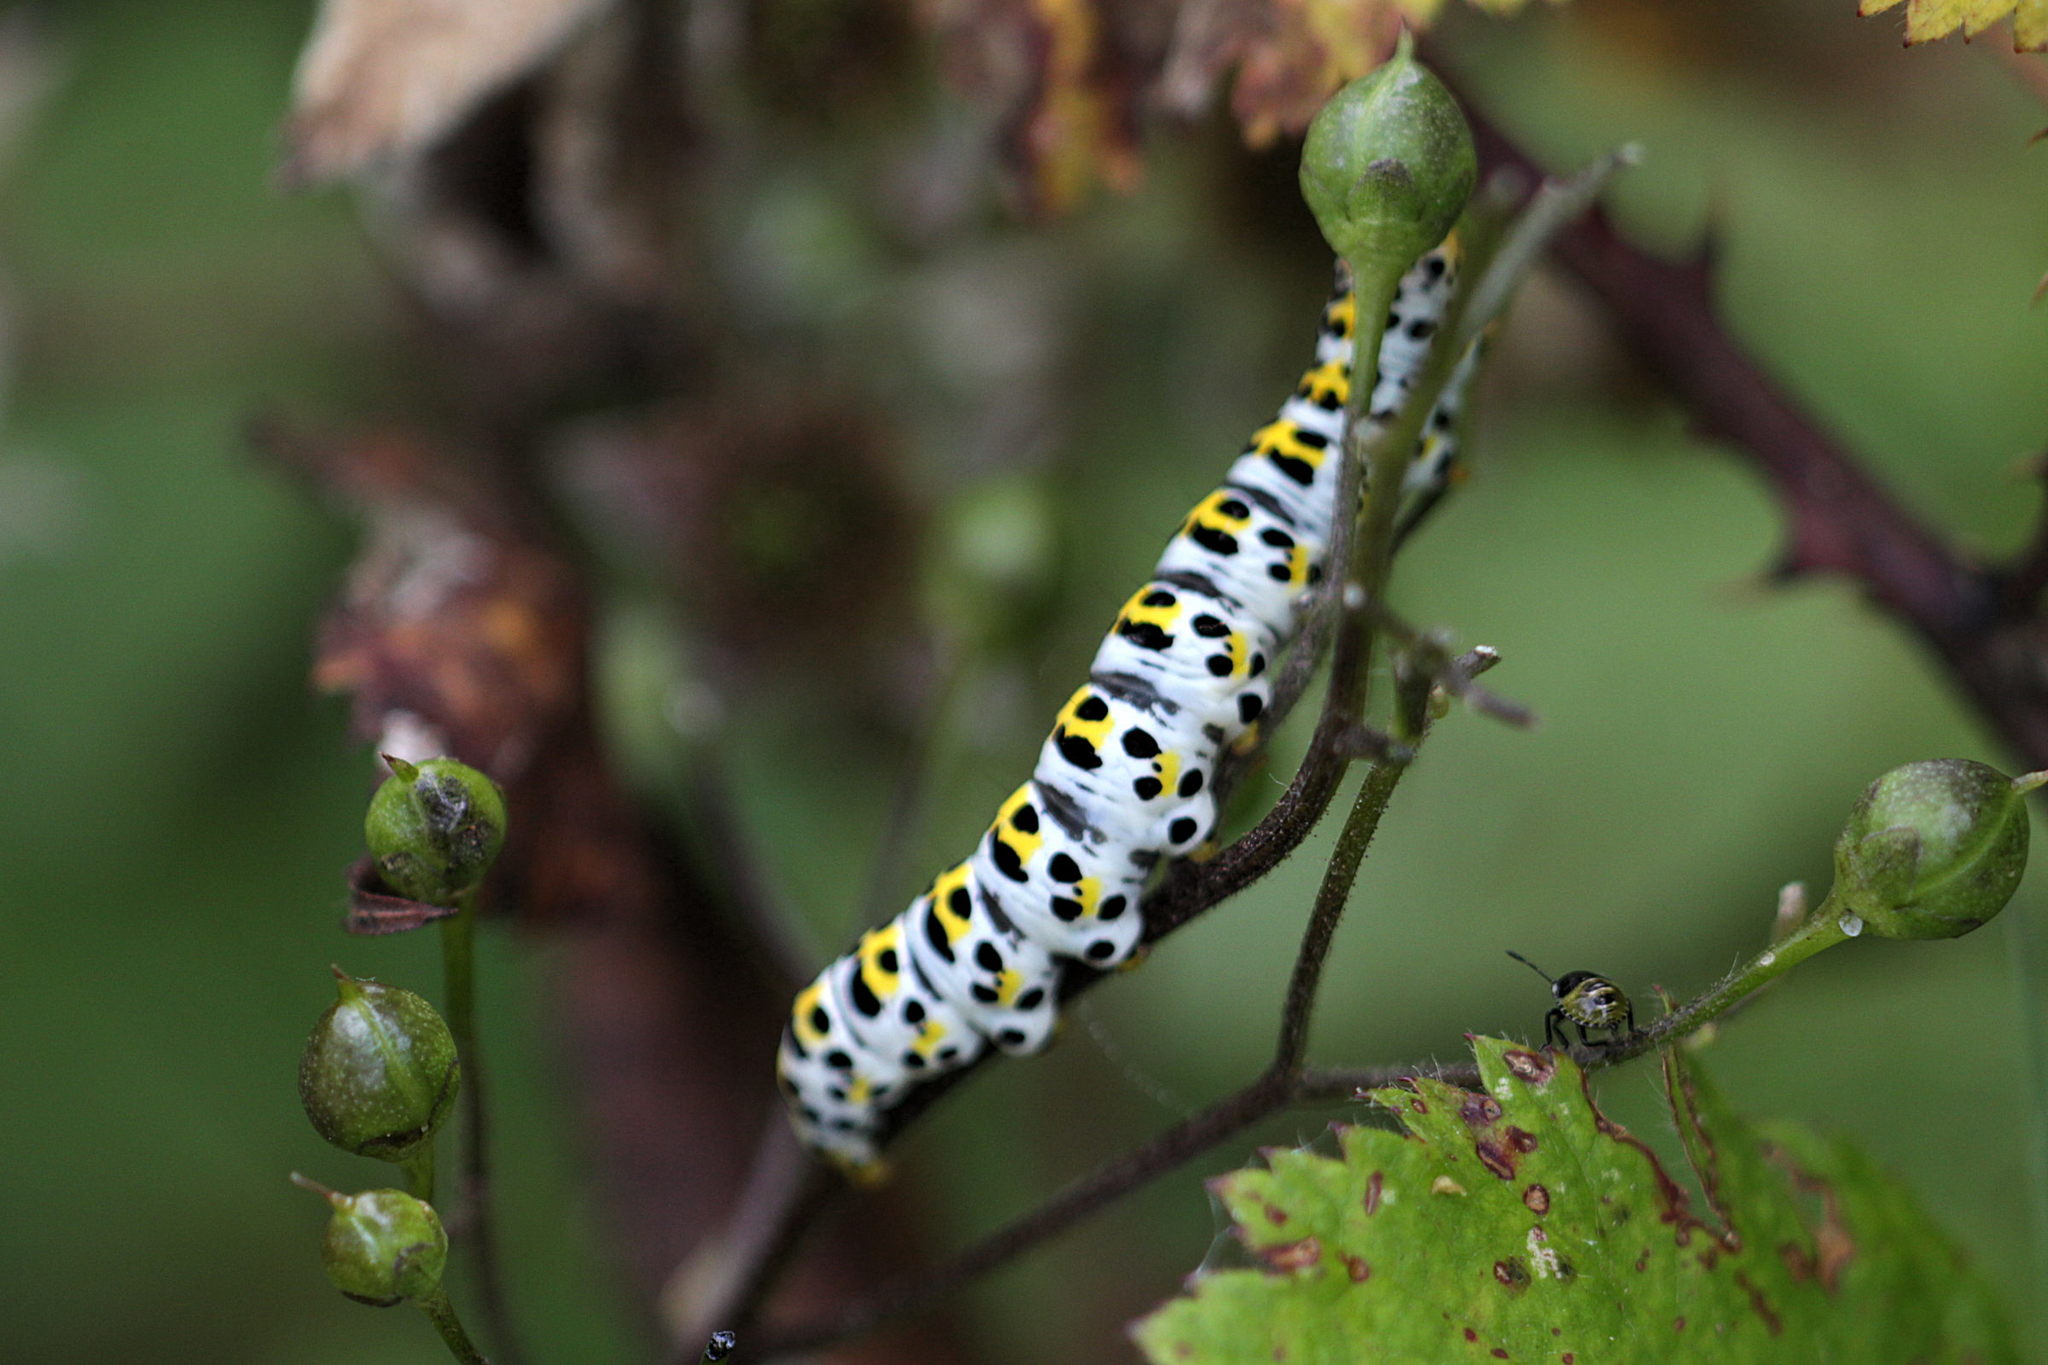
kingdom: Animalia
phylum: Arthropoda
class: Insecta
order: Lepidoptera
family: Noctuidae
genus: Shargacucullia
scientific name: Shargacucullia scrophulariae
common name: Water betony
